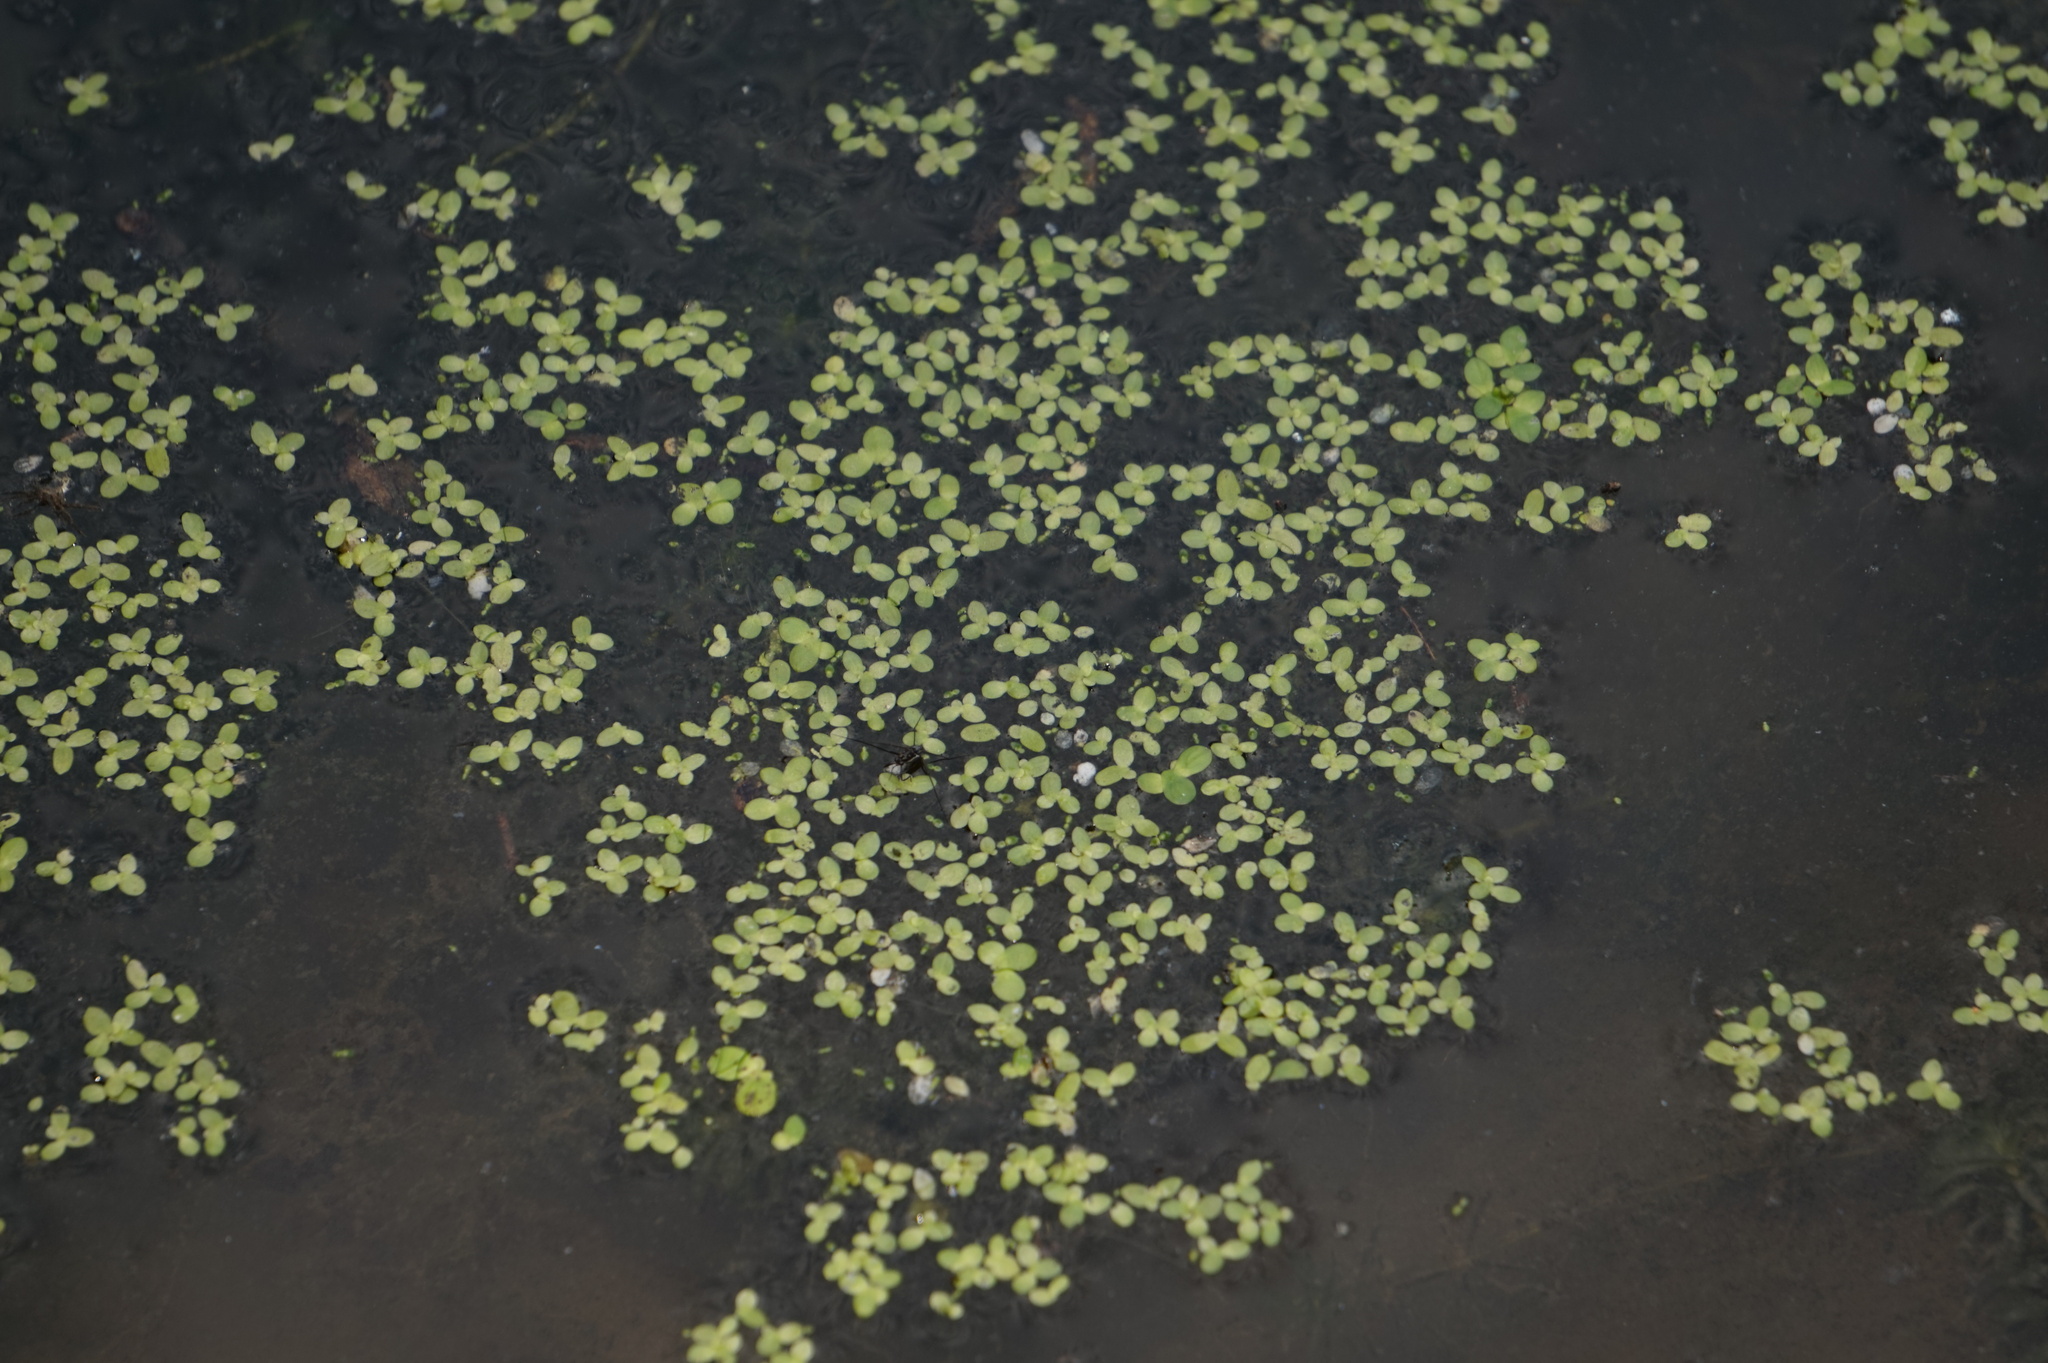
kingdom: Plantae
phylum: Tracheophyta
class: Liliopsida
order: Alismatales
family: Araceae
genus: Lemna
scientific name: Lemna minor
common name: Common duckweed
